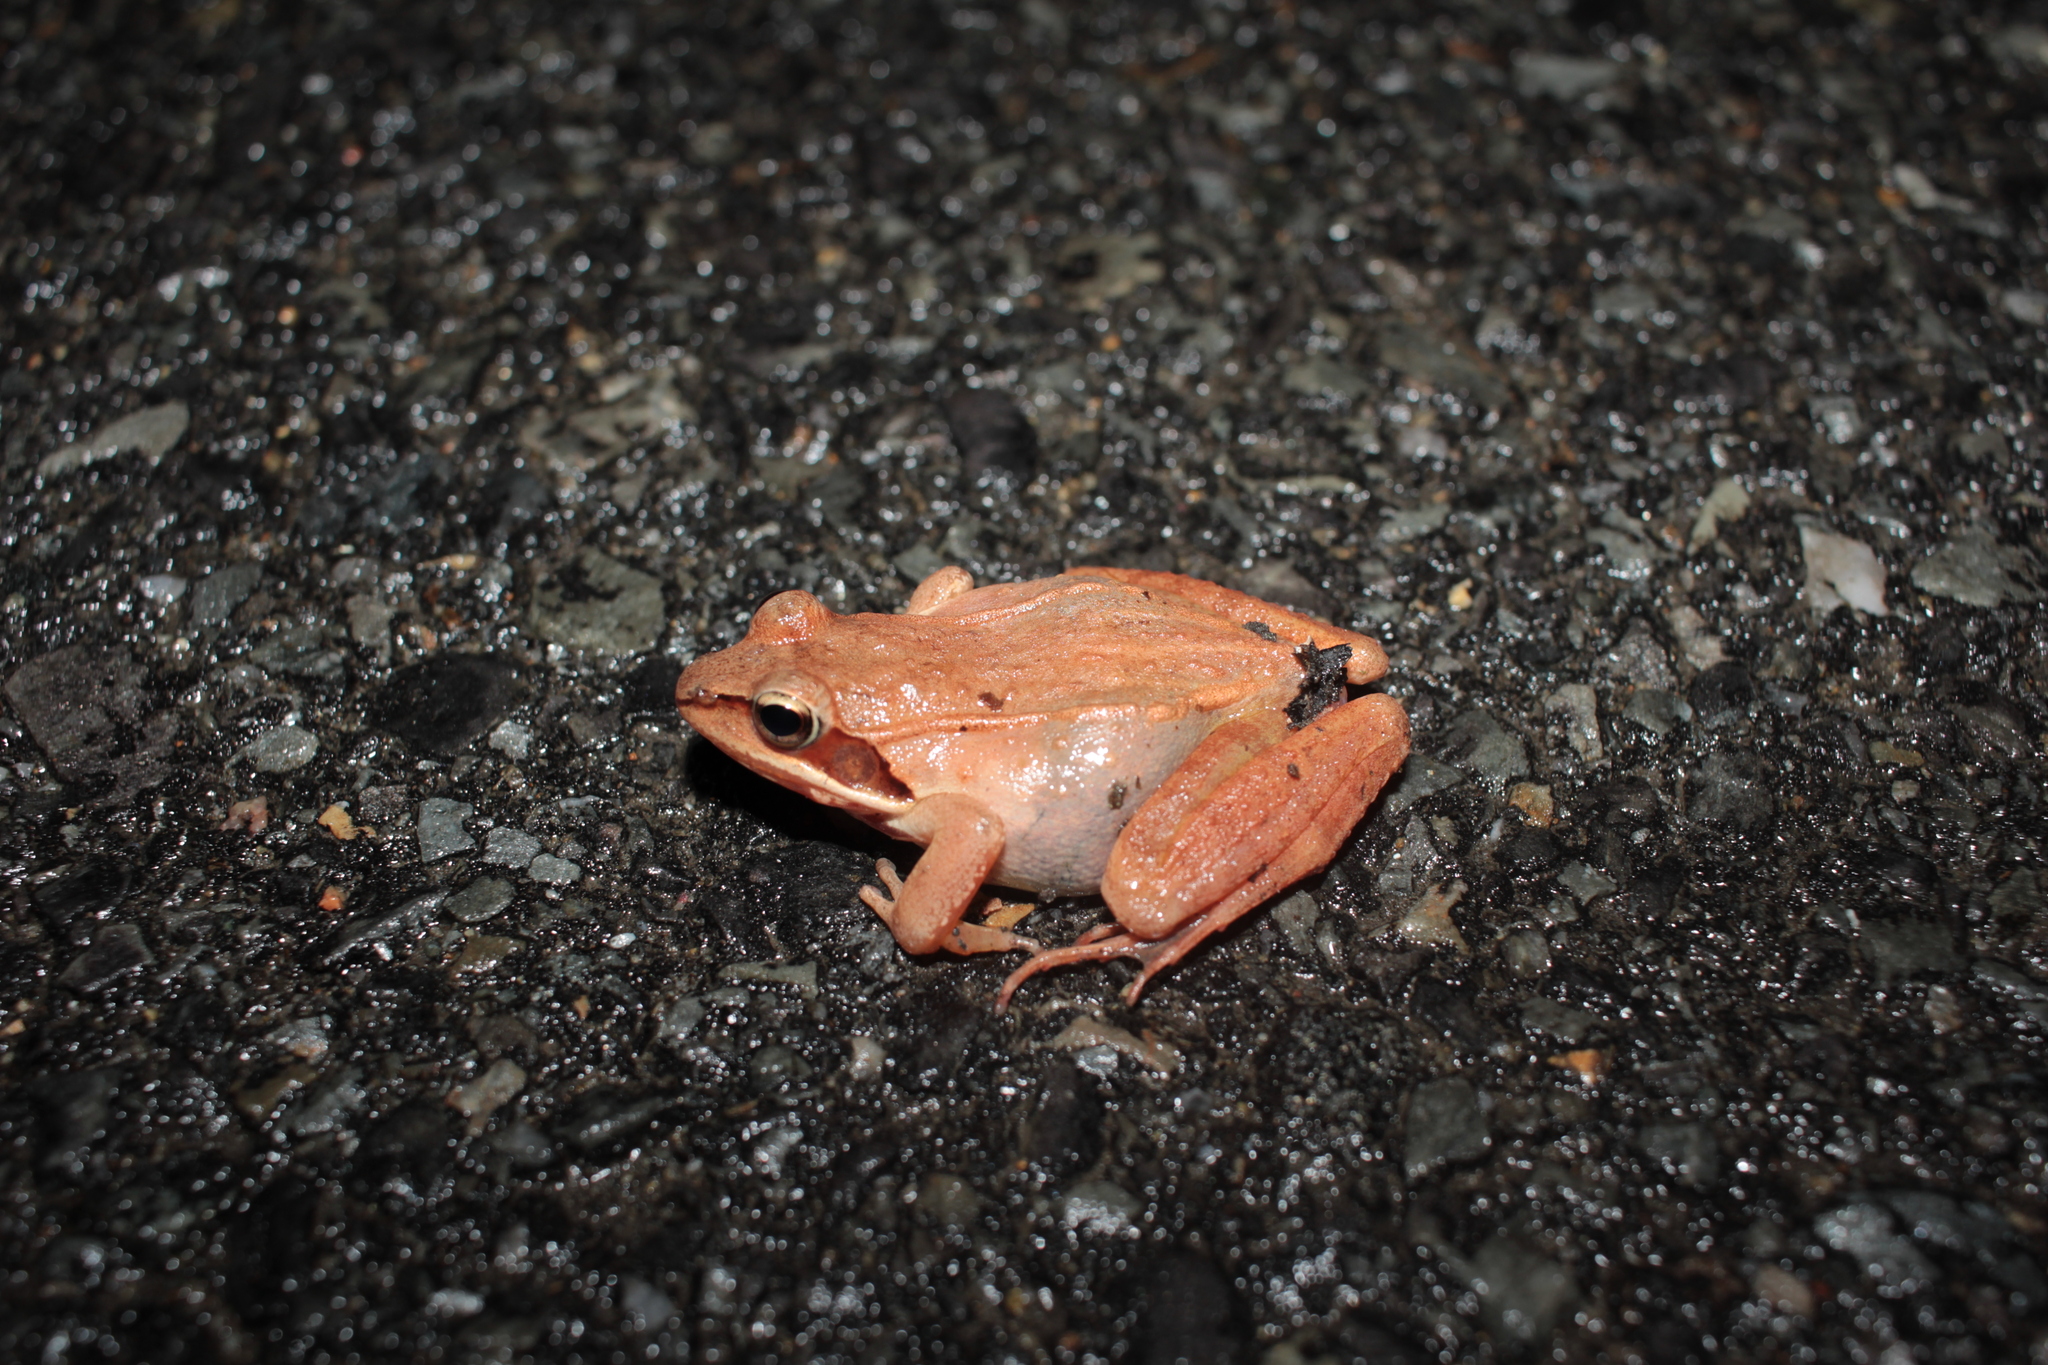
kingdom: Animalia
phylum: Chordata
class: Amphibia
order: Anura
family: Ranidae
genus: Lithobates
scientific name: Lithobates sylvaticus
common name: Wood frog
